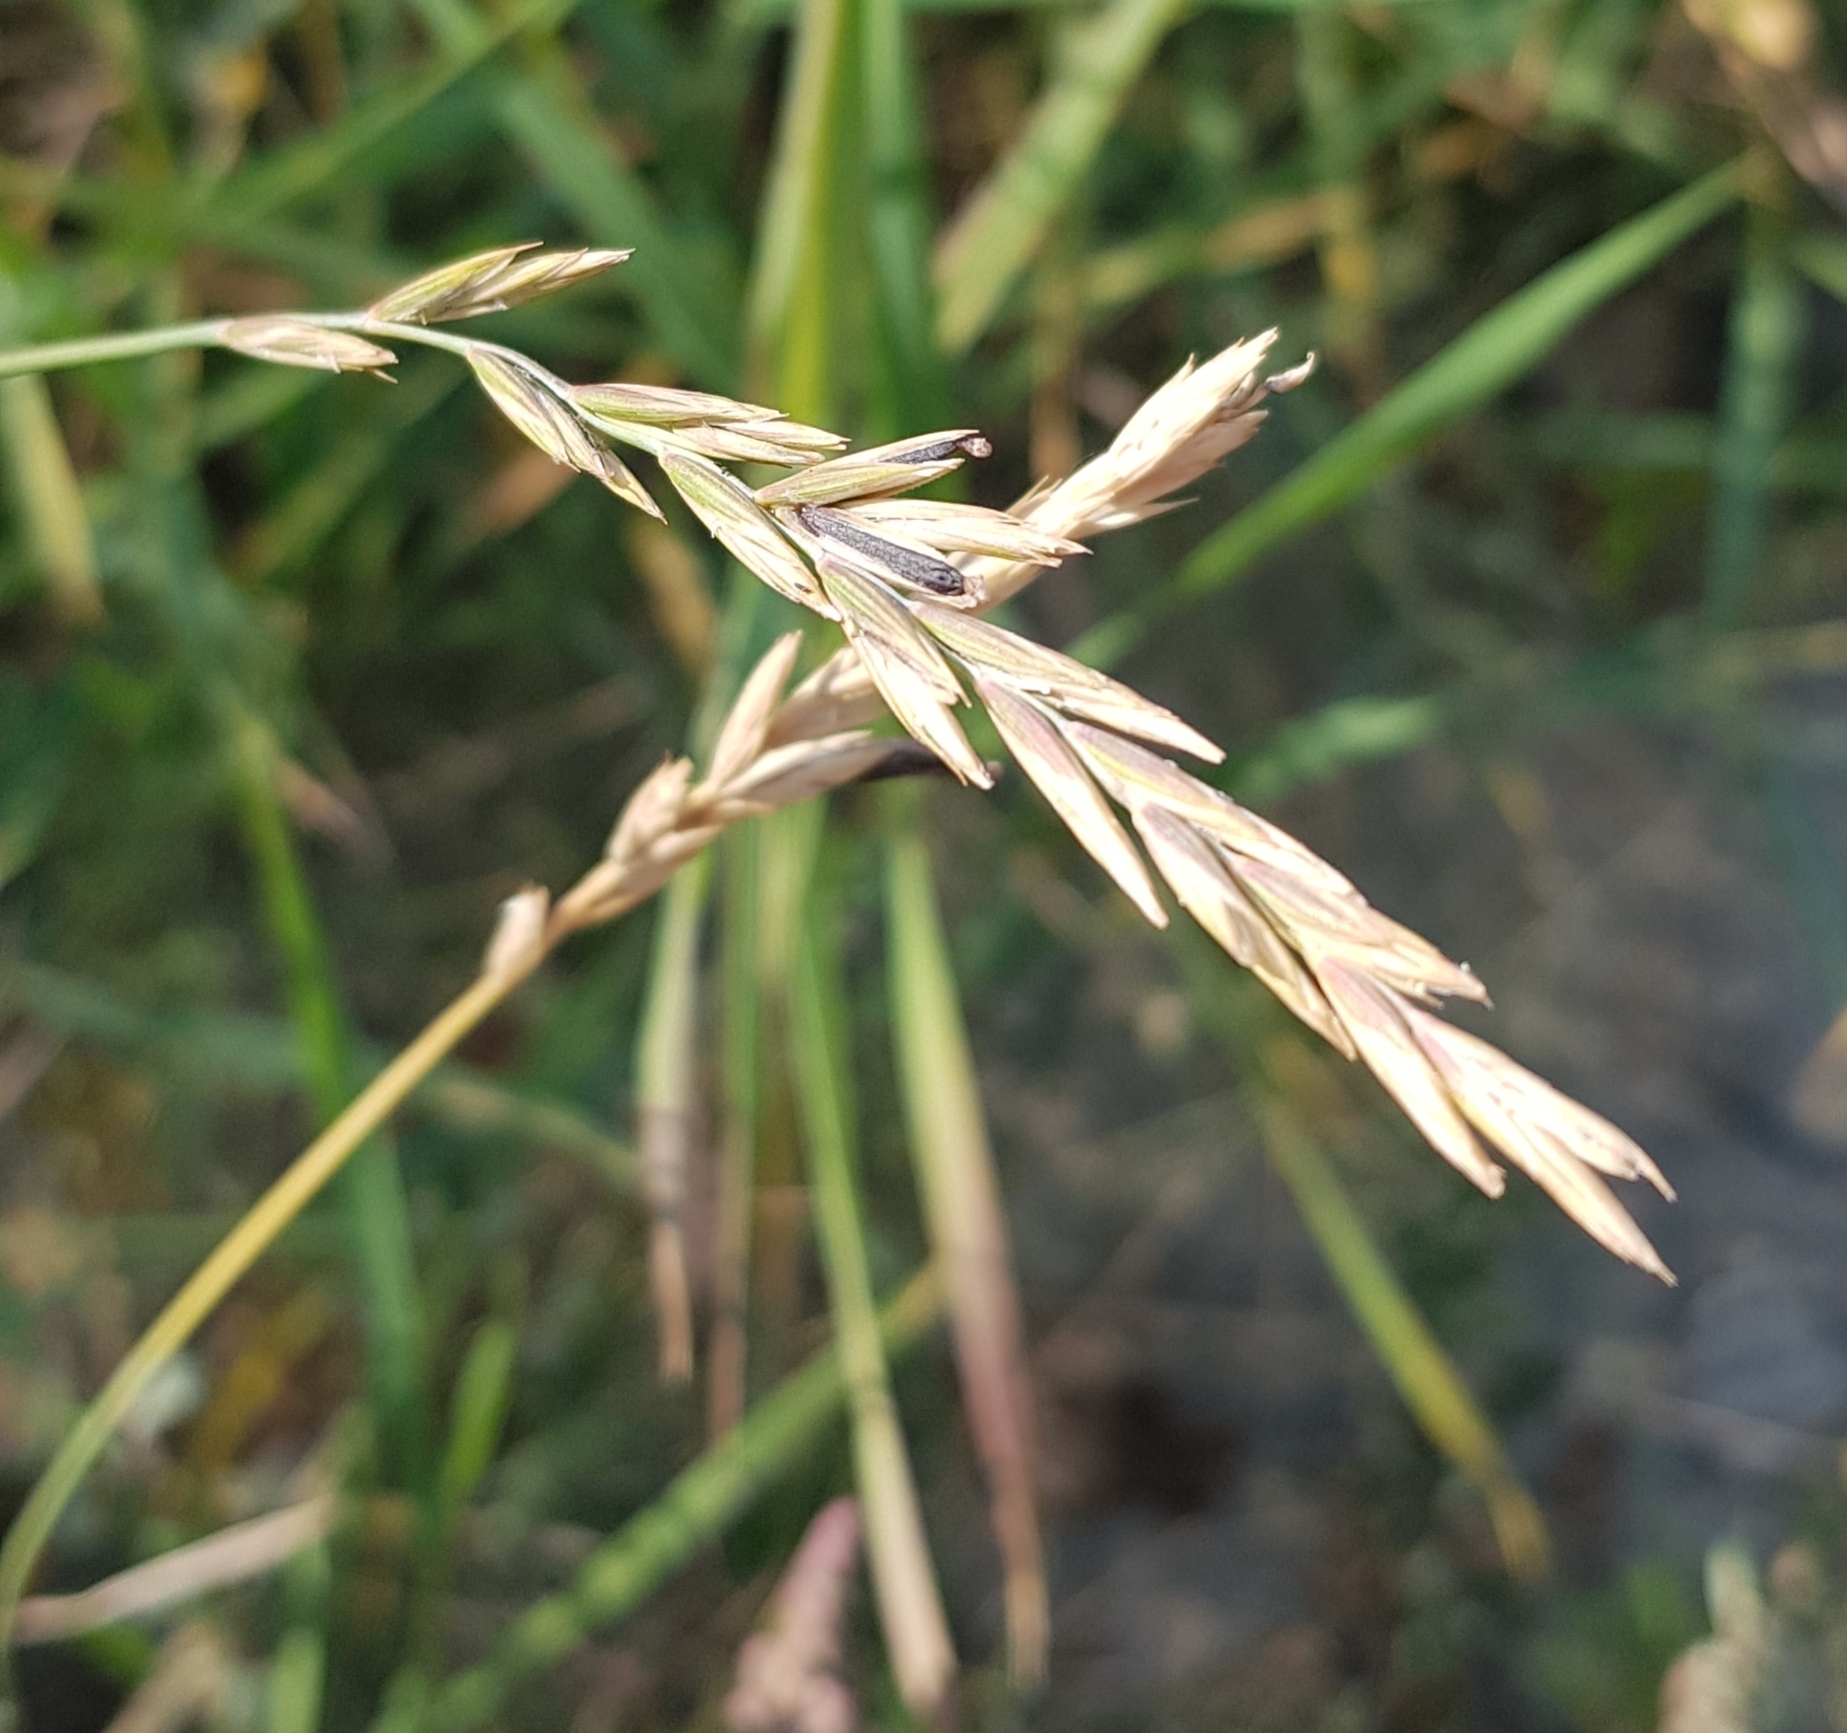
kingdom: Plantae
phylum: Tracheophyta
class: Liliopsida
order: Poales
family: Poaceae
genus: Elymus
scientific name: Elymus repens
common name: Quackgrass
